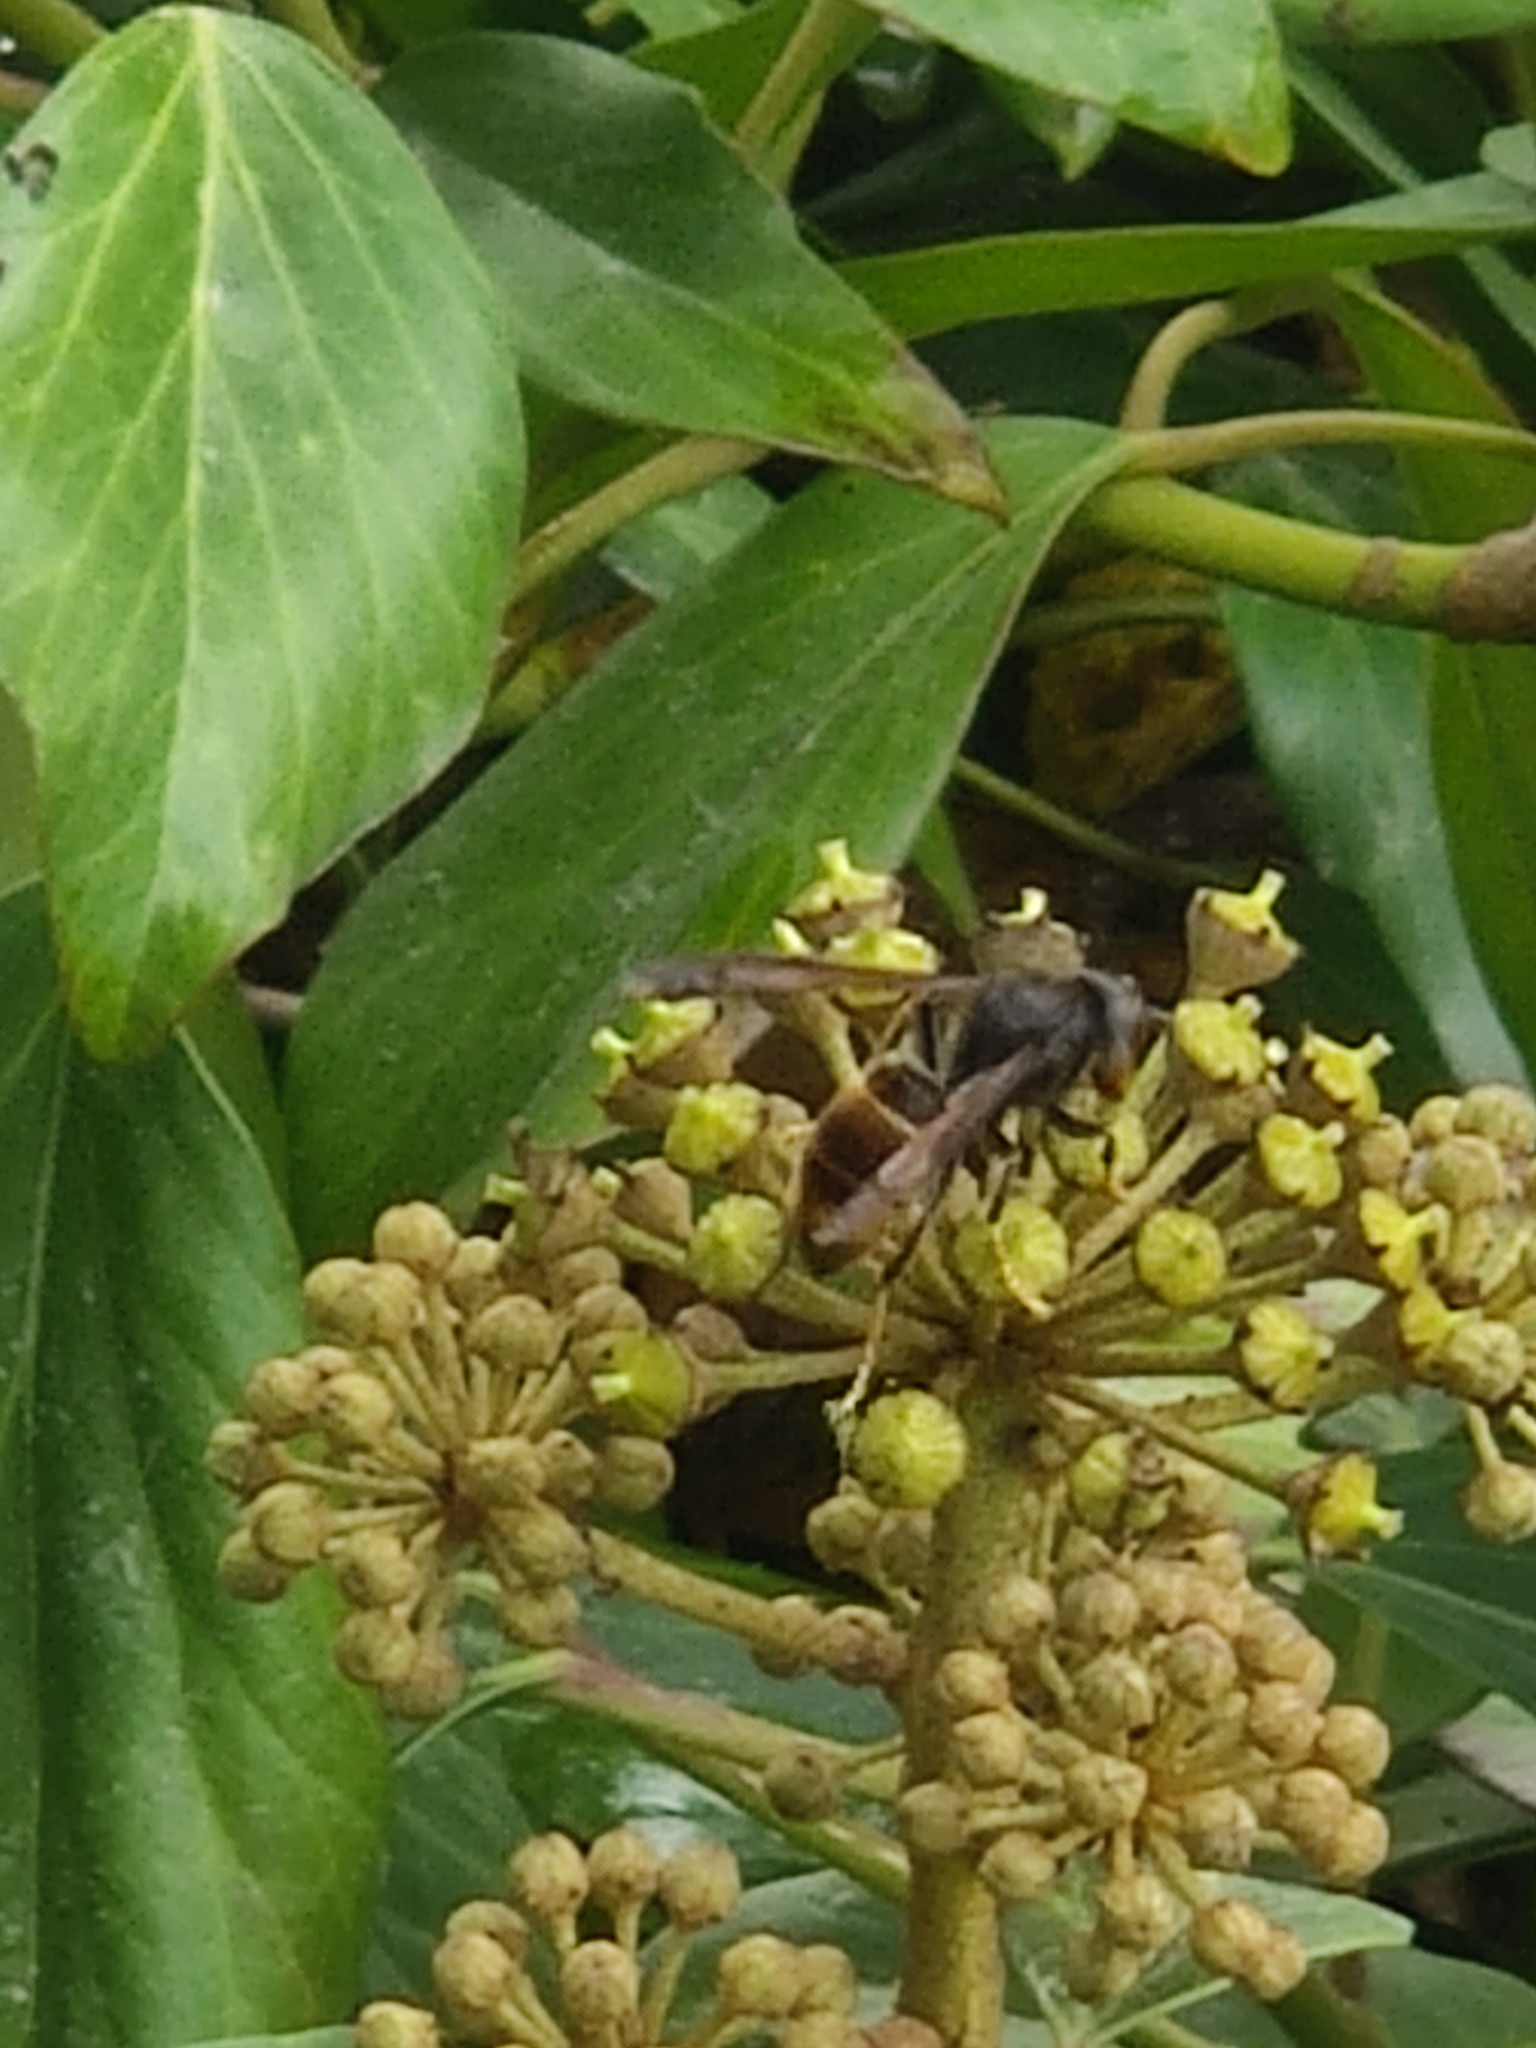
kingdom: Animalia
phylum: Arthropoda
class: Insecta
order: Hymenoptera
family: Vespidae
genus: Vespa
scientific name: Vespa velutina
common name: Asian hornet
